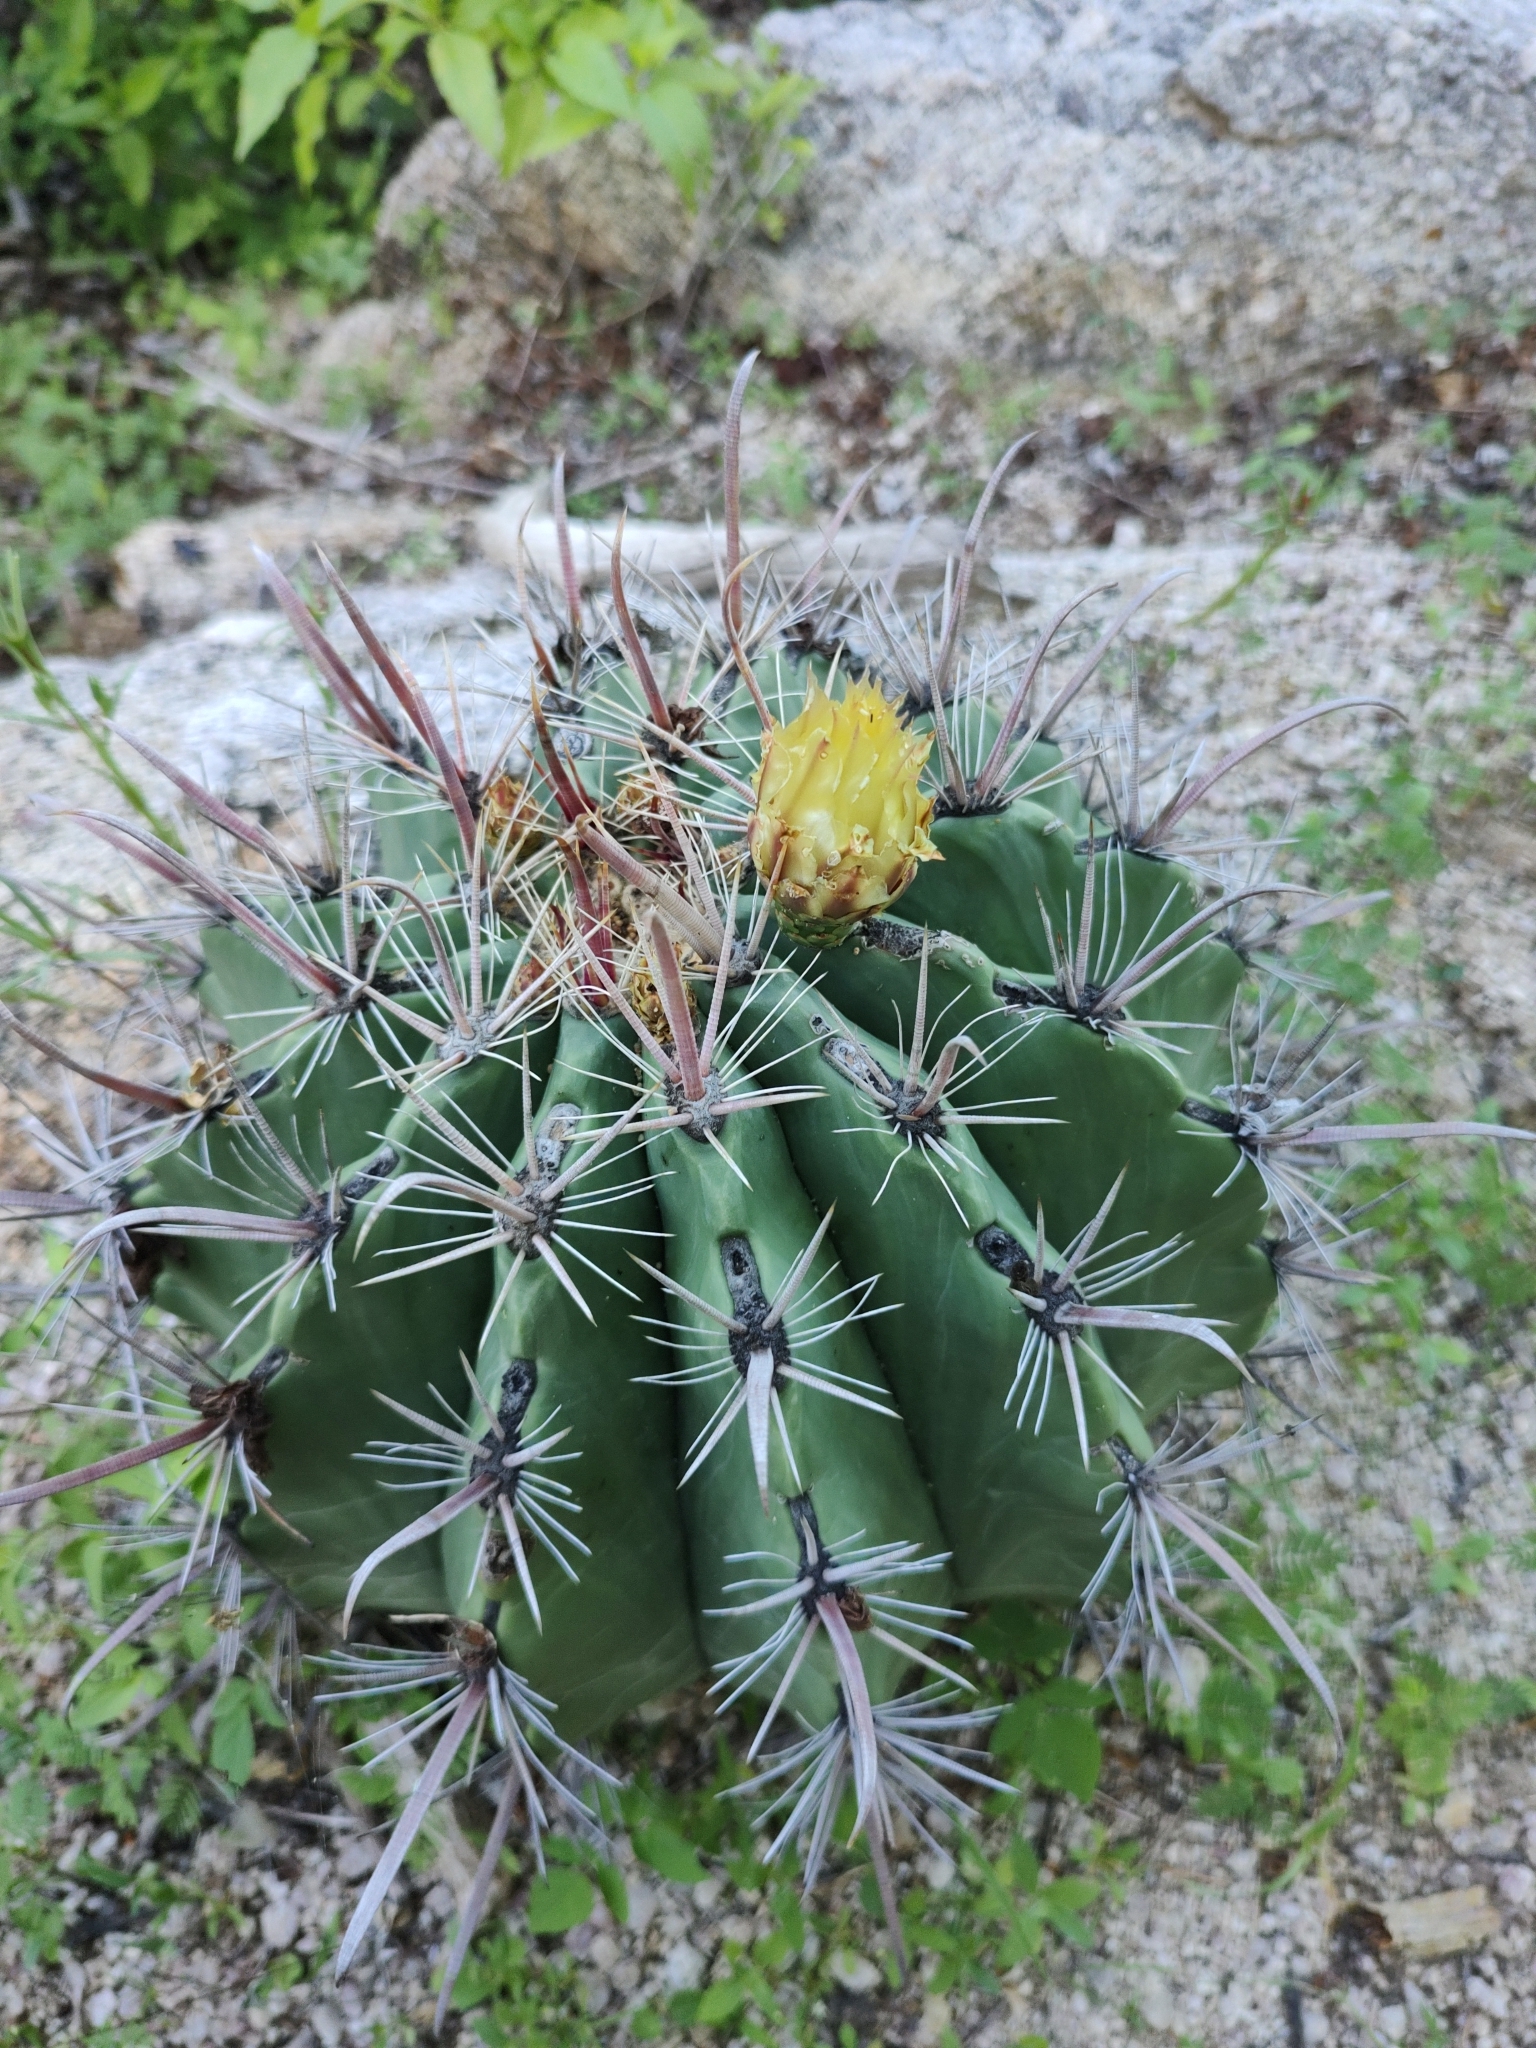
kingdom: Plantae
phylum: Tracheophyta
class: Magnoliopsida
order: Caryophyllales
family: Cactaceae
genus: Ferocactus
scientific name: Ferocactus townsendianus
